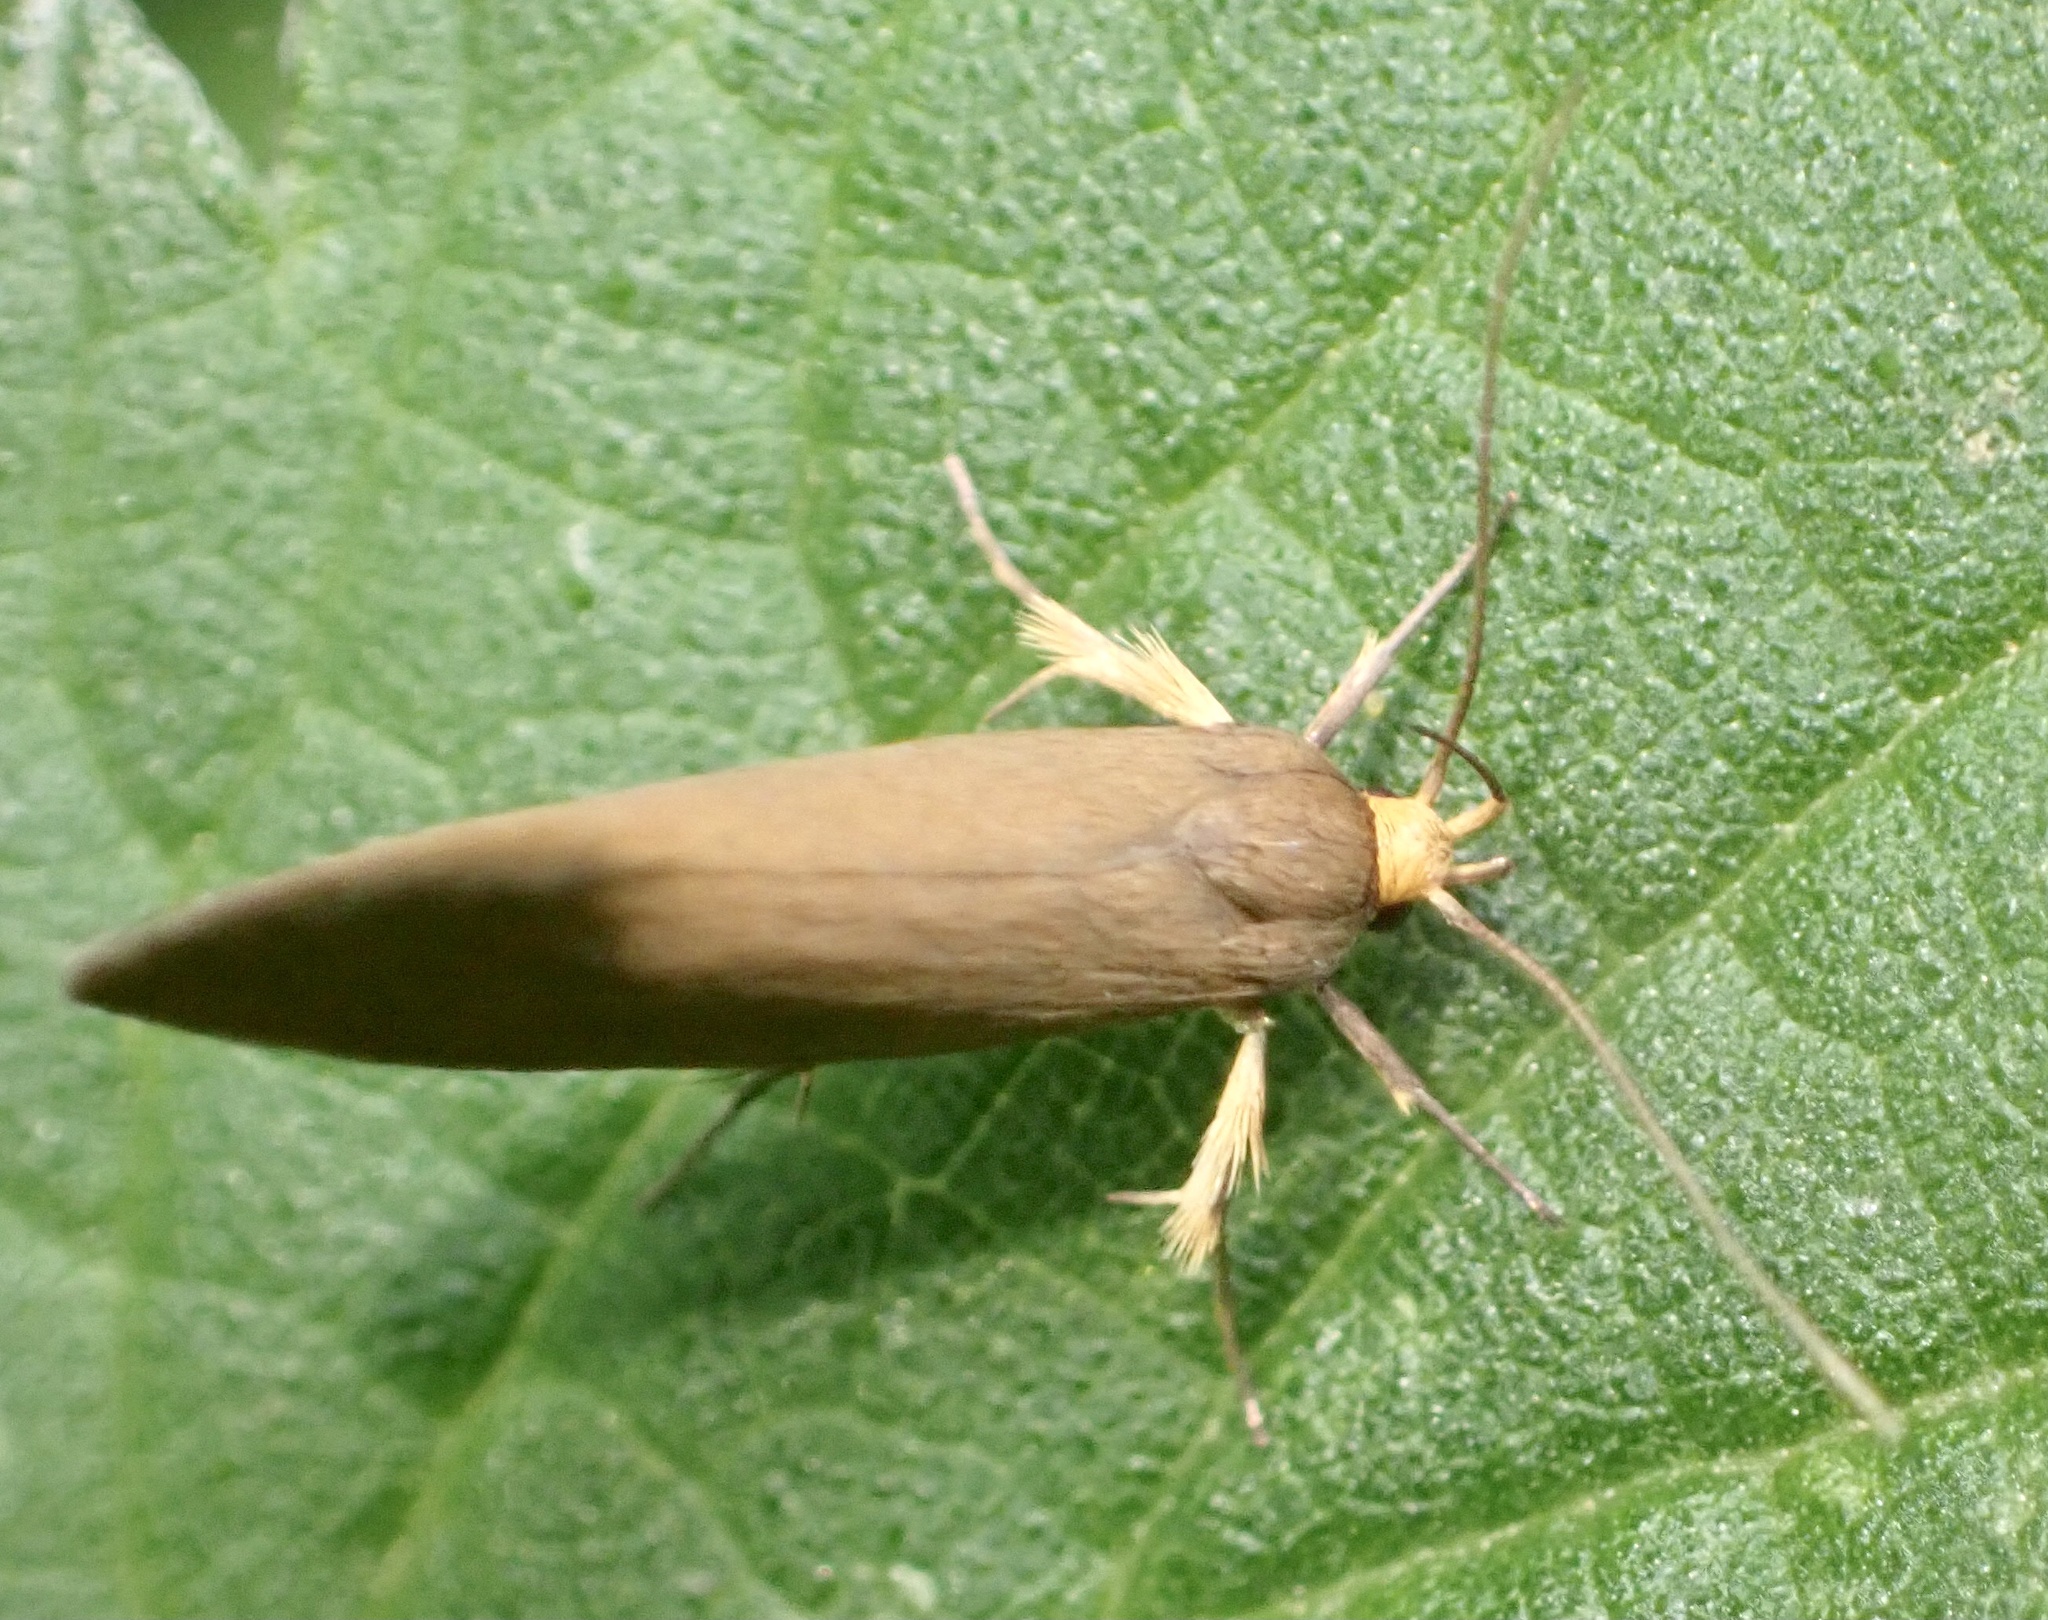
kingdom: Animalia
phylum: Arthropoda
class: Insecta
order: Lepidoptera
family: Oecophoridae
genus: Borkhausenia
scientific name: Borkhausenia Crassa unitella
